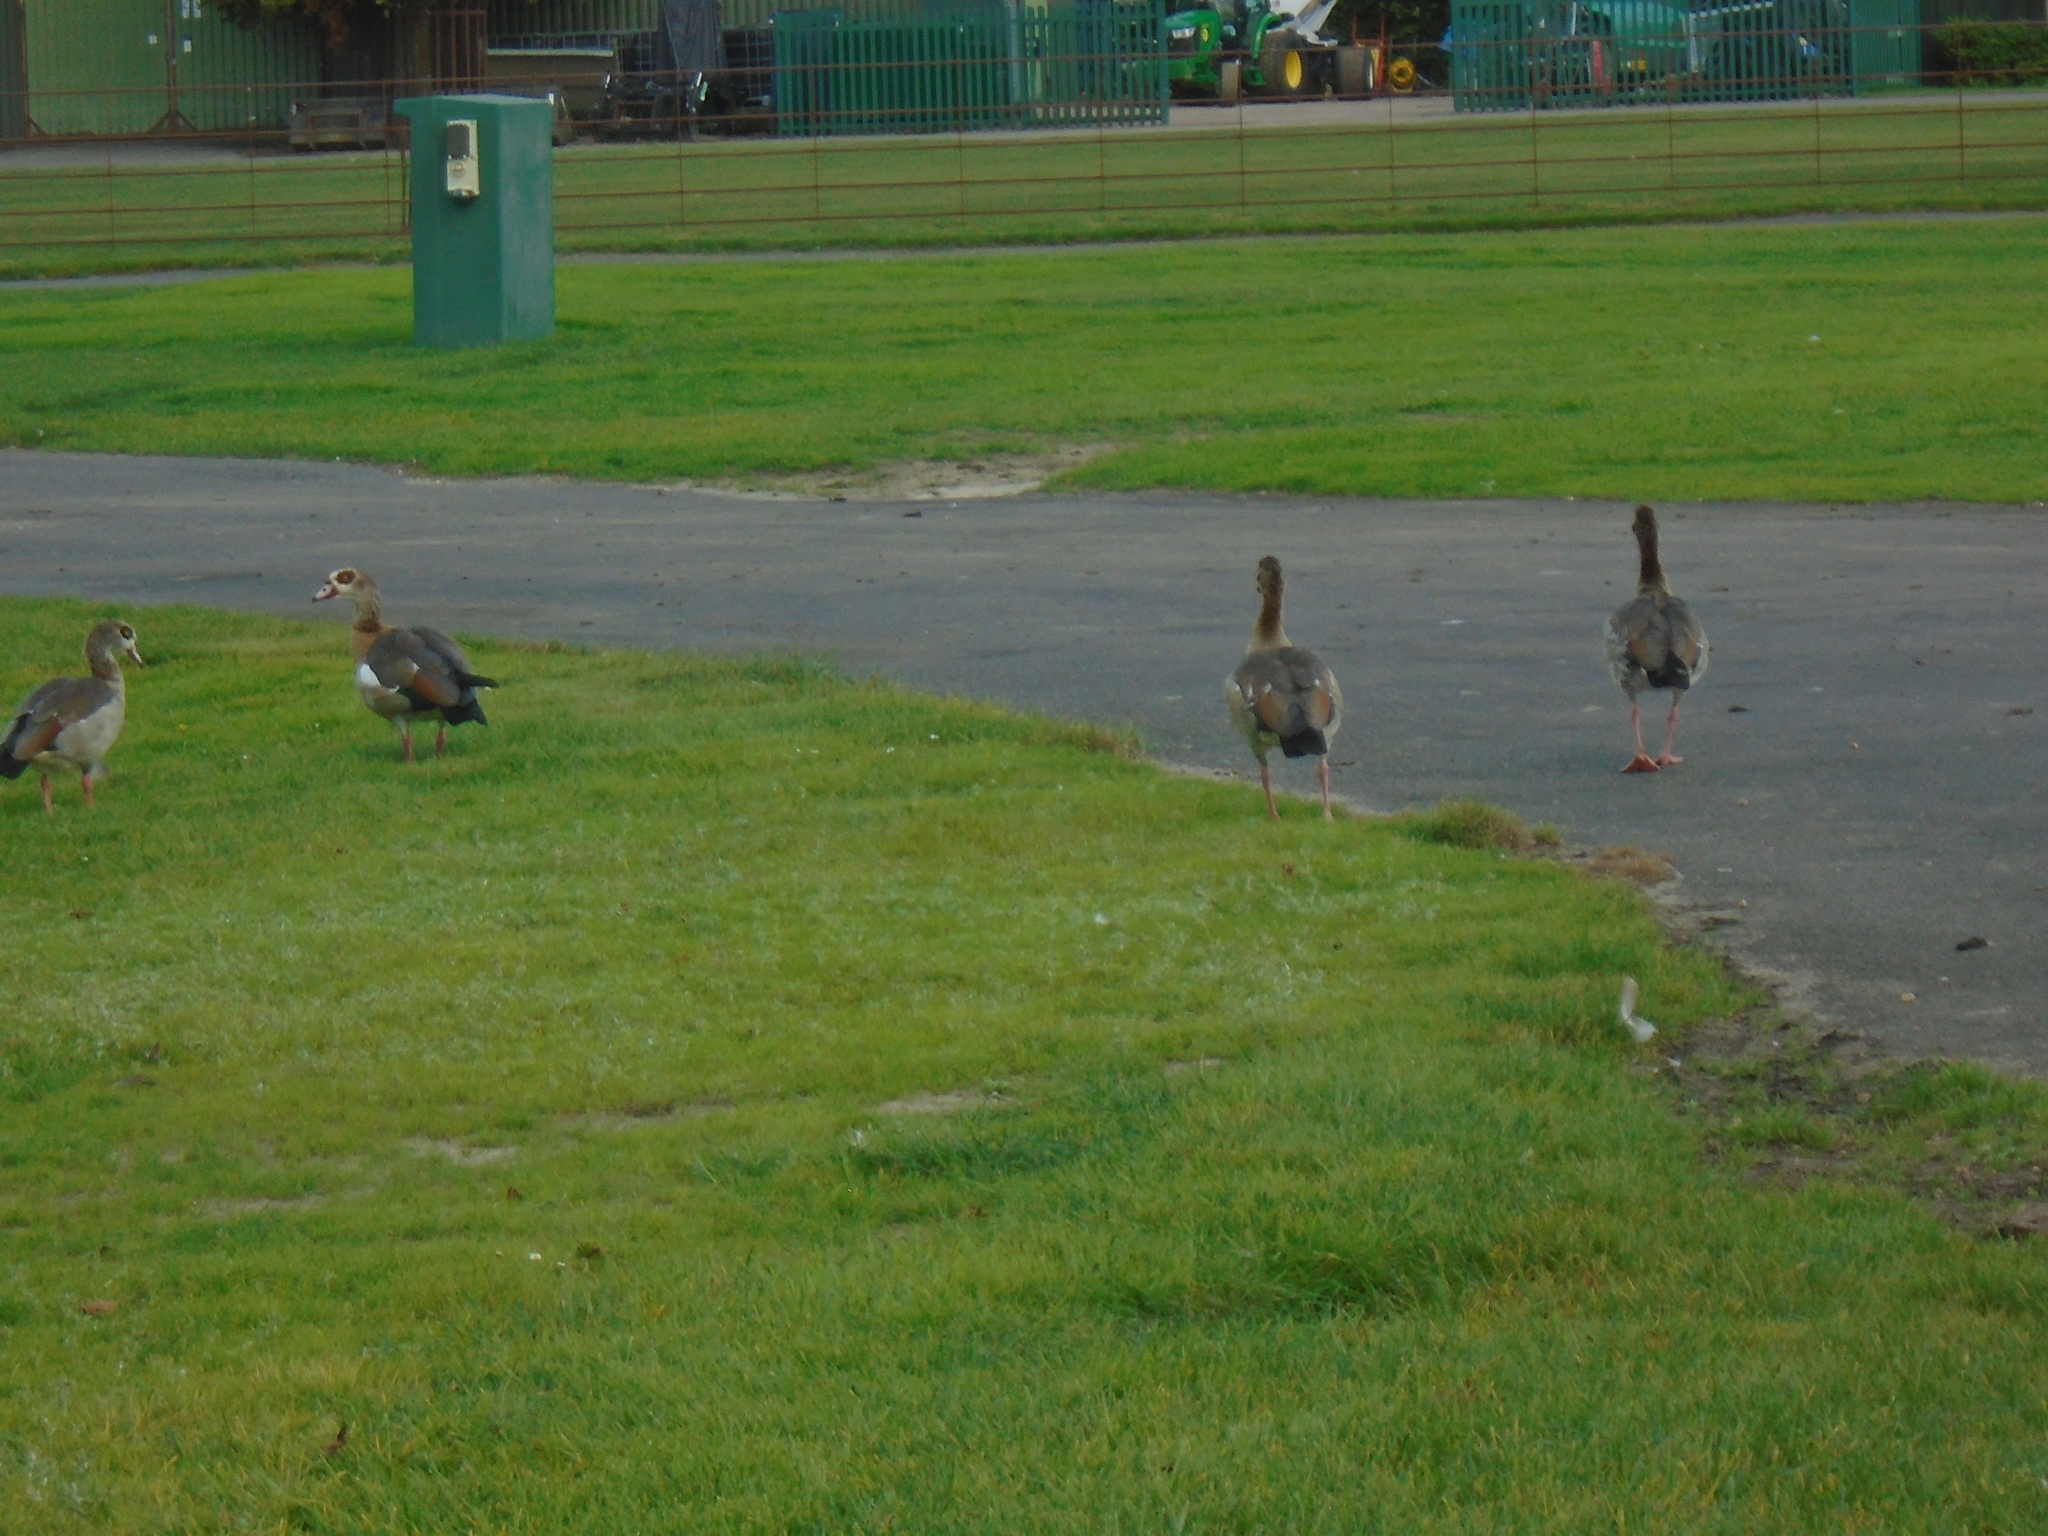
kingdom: Animalia
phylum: Chordata
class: Aves
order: Anseriformes
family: Anatidae
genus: Alopochen
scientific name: Alopochen aegyptiaca
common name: Egyptian goose
